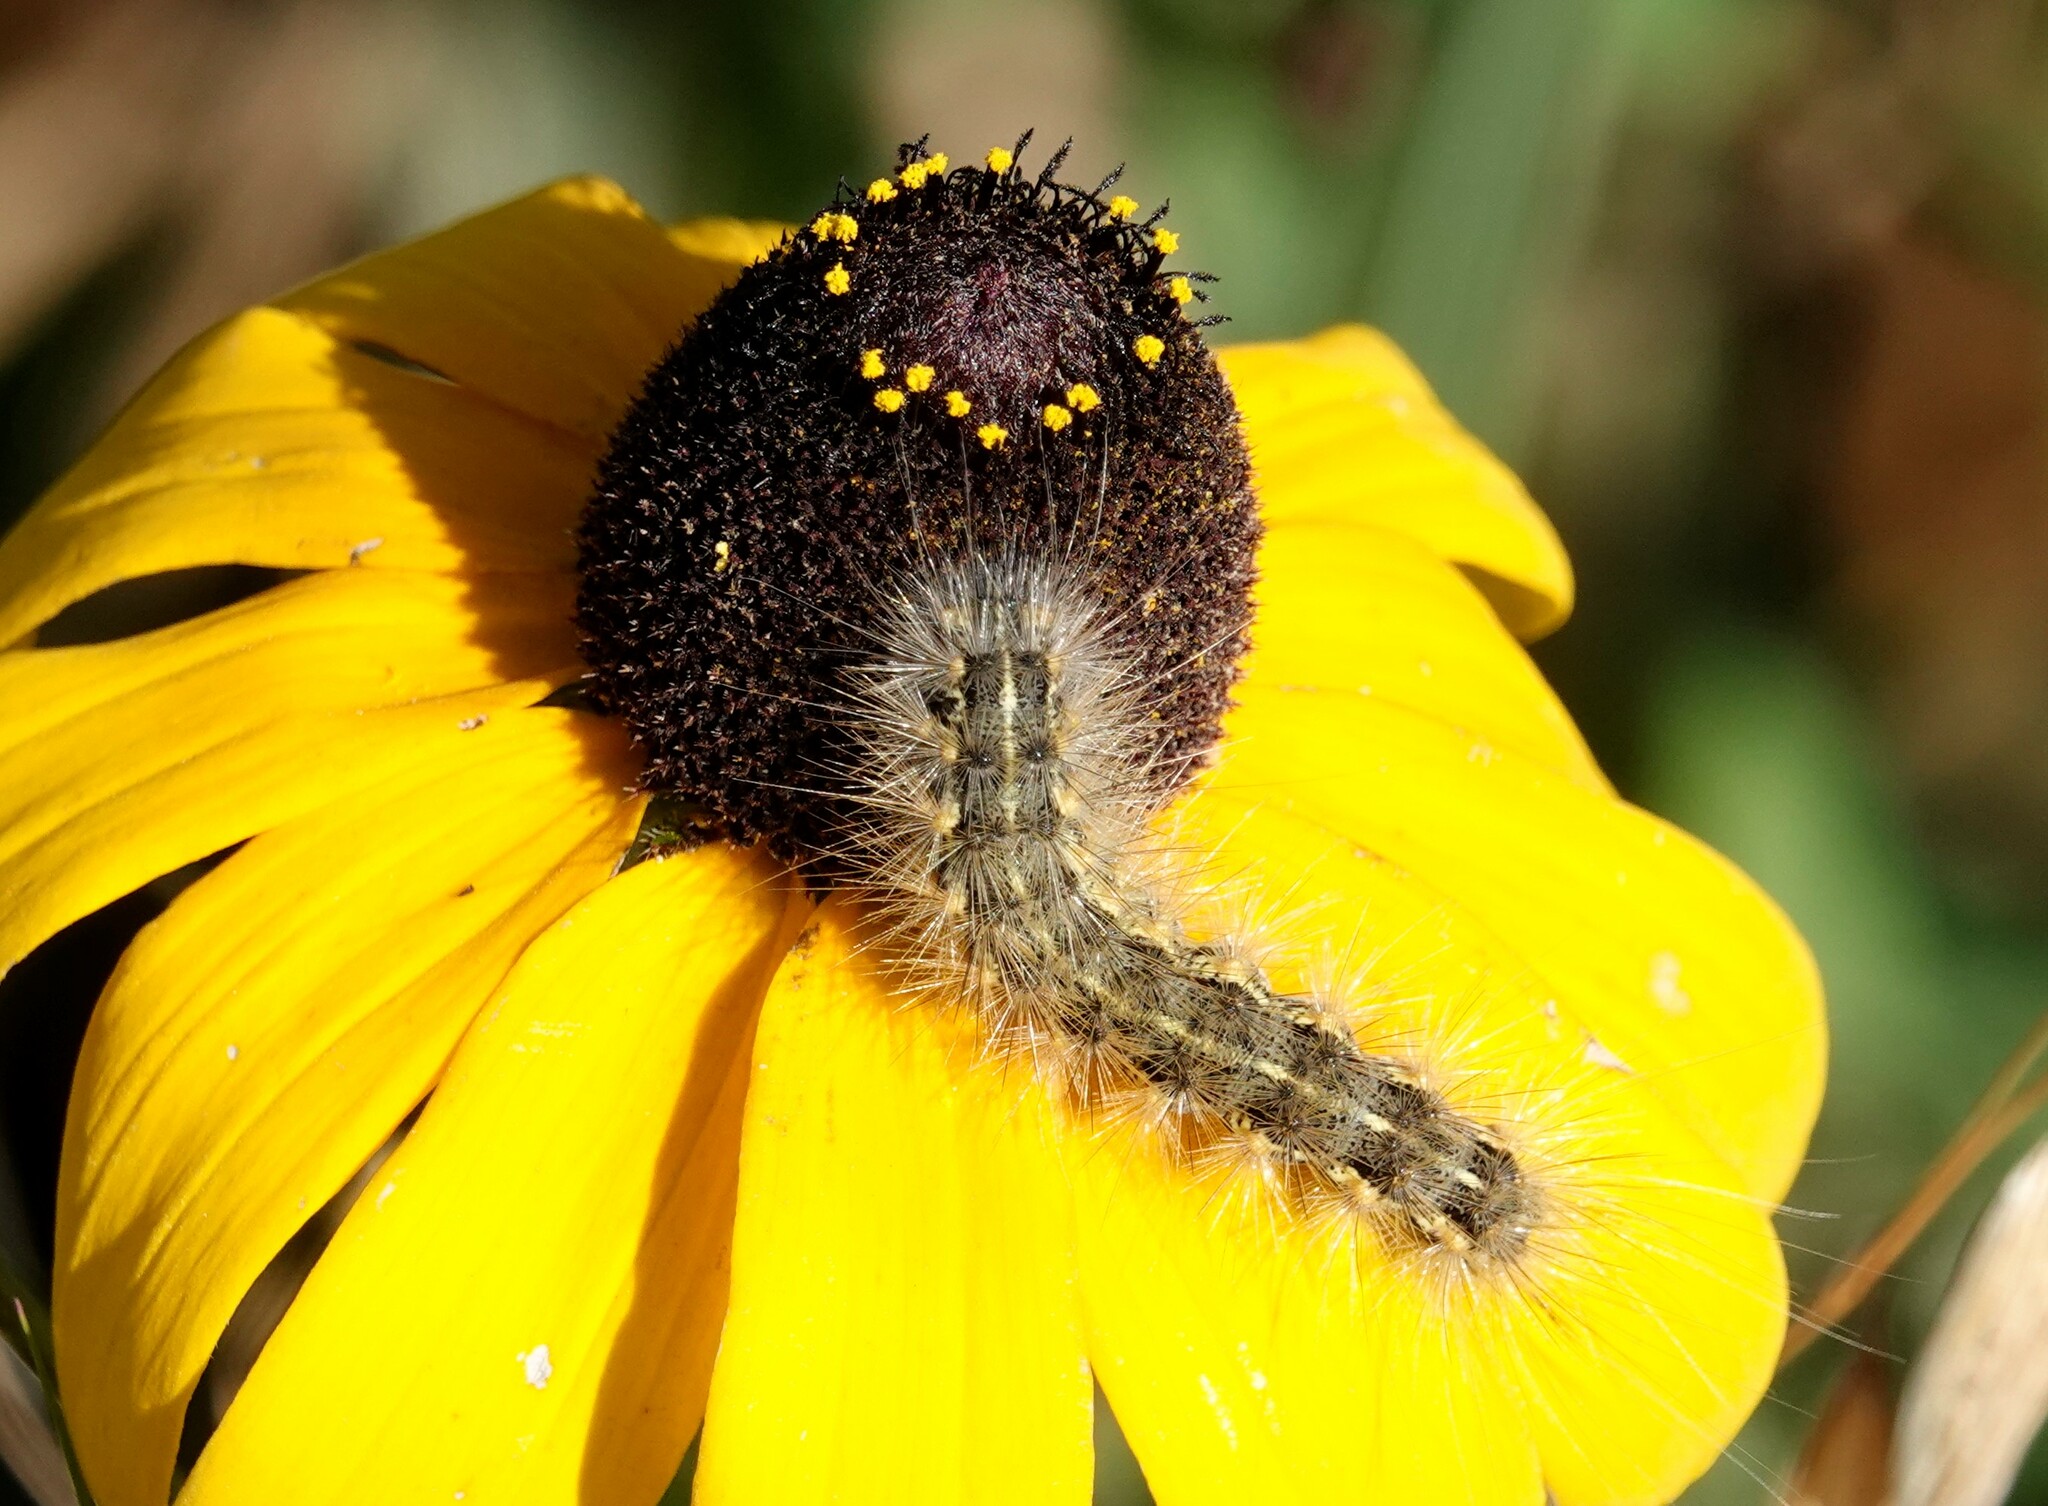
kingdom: Animalia
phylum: Arthropoda
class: Insecta
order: Lepidoptera
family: Erebidae
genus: Estigmene
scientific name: Estigmene acrea
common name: Salt marsh moth
